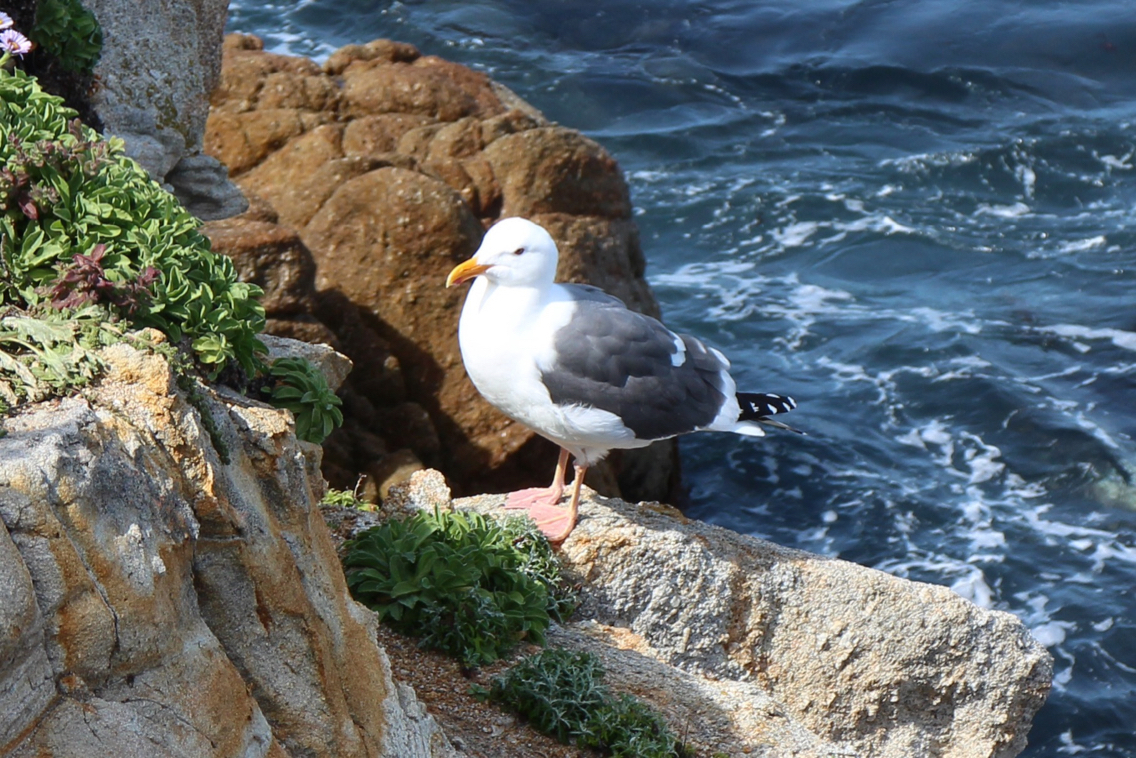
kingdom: Animalia
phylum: Chordata
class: Aves
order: Charadriiformes
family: Laridae
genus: Larus
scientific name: Larus occidentalis
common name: Western gull
